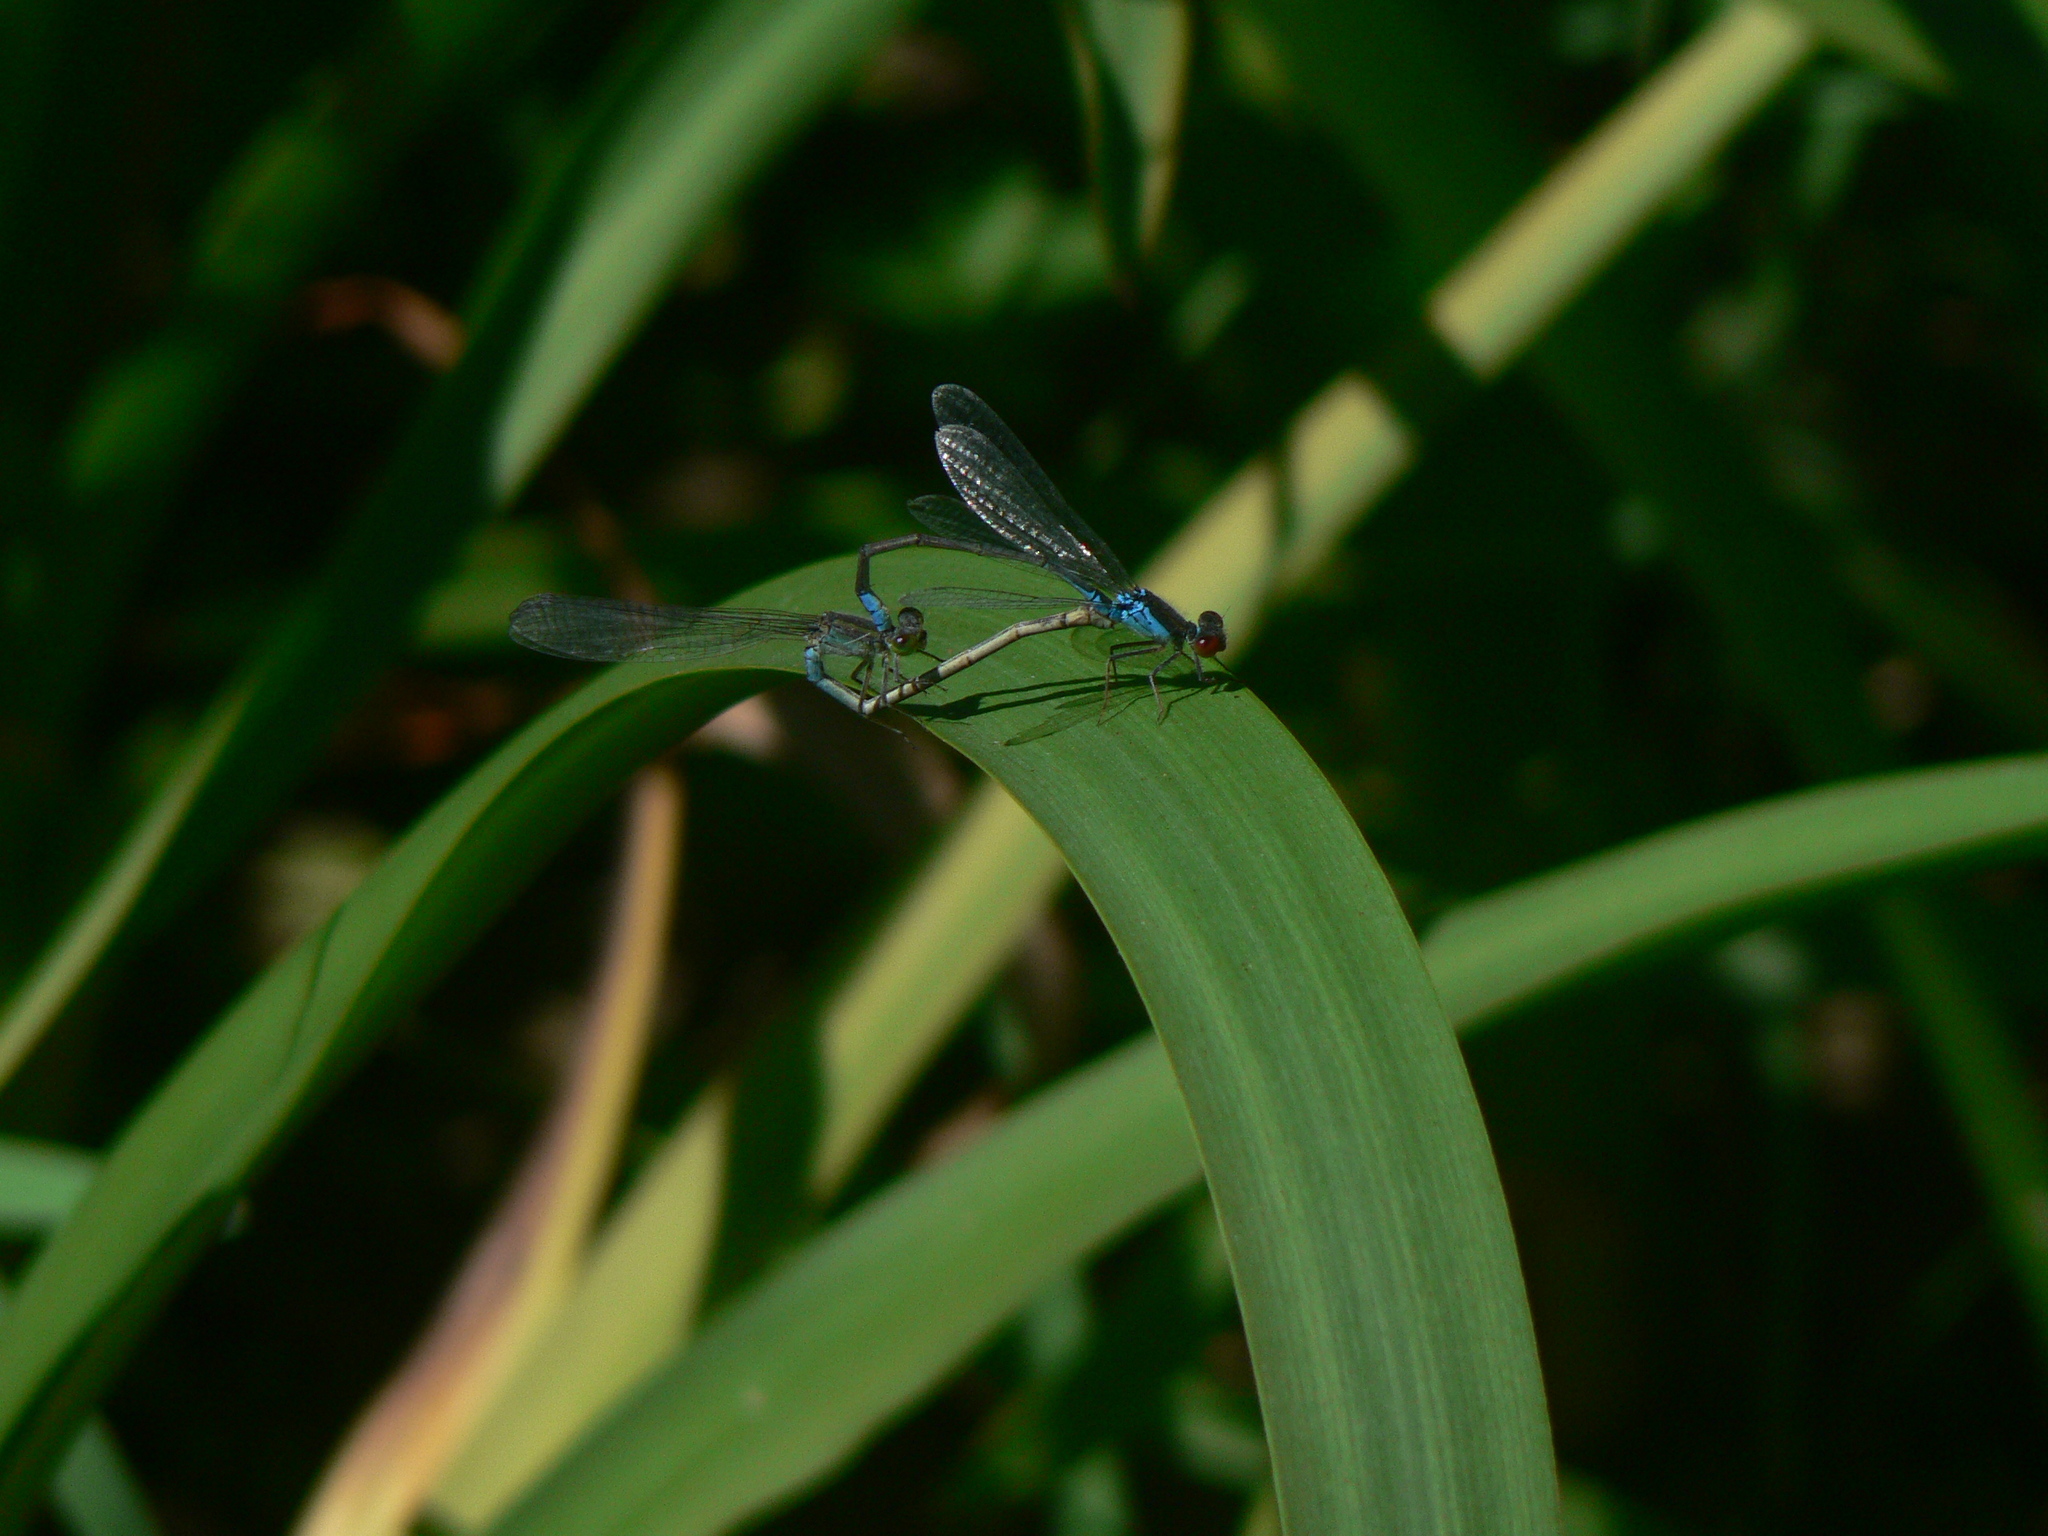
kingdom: Animalia
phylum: Arthropoda
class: Insecta
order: Odonata
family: Coenagrionidae
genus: Erythromma
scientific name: Erythromma viridulum
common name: Small red-eyed damselfly
